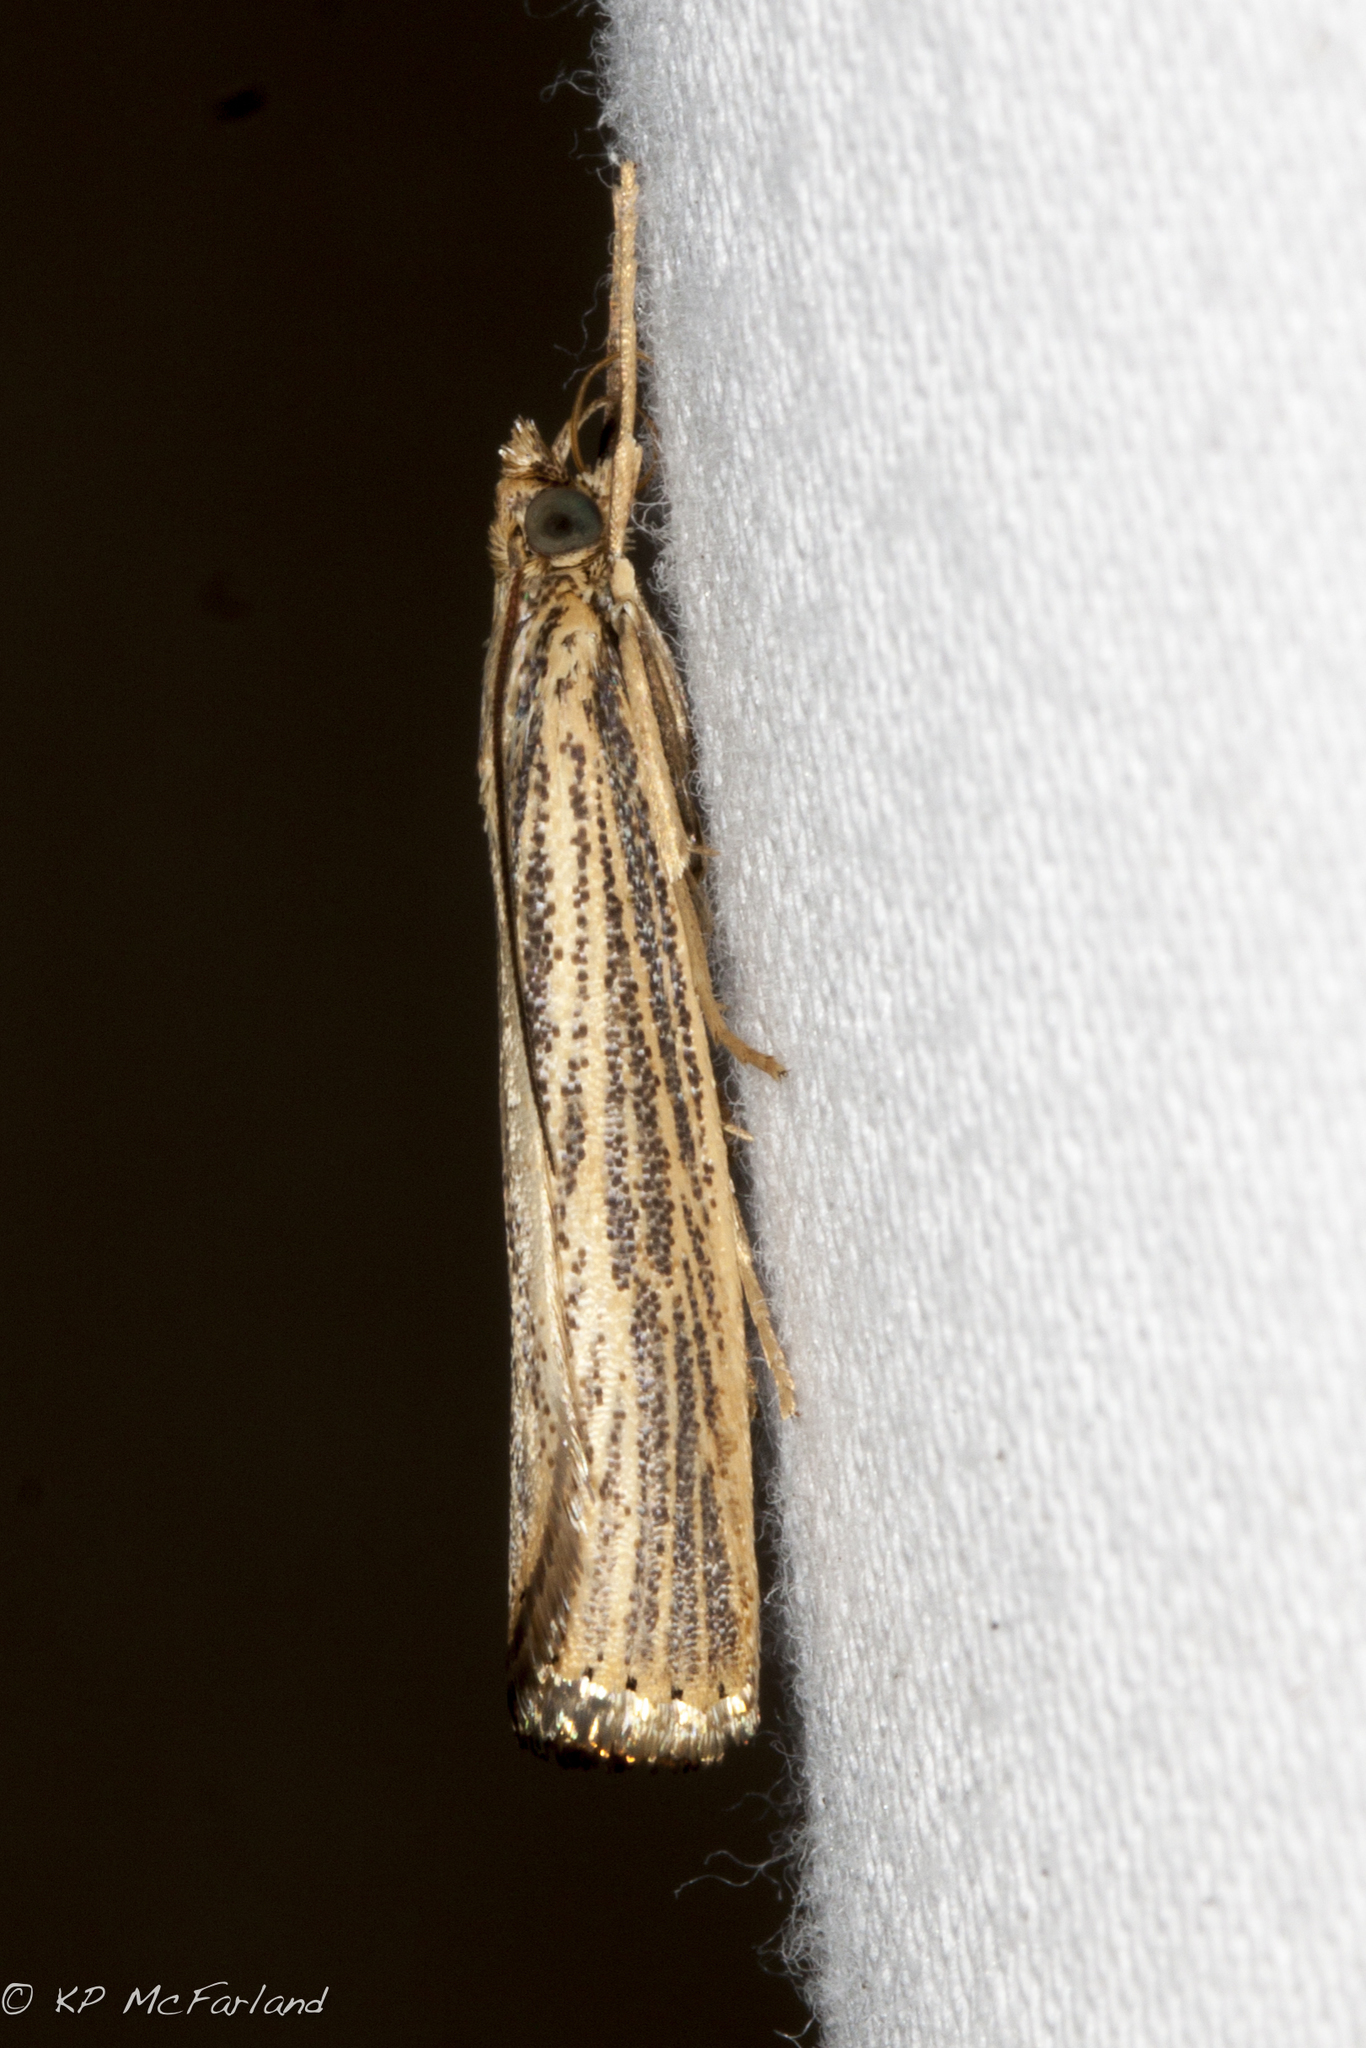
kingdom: Animalia
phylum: Arthropoda
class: Insecta
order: Lepidoptera
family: Crambidae
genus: Agriphila
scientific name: Agriphila vulgivagellus
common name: Vagabond crambus moth
